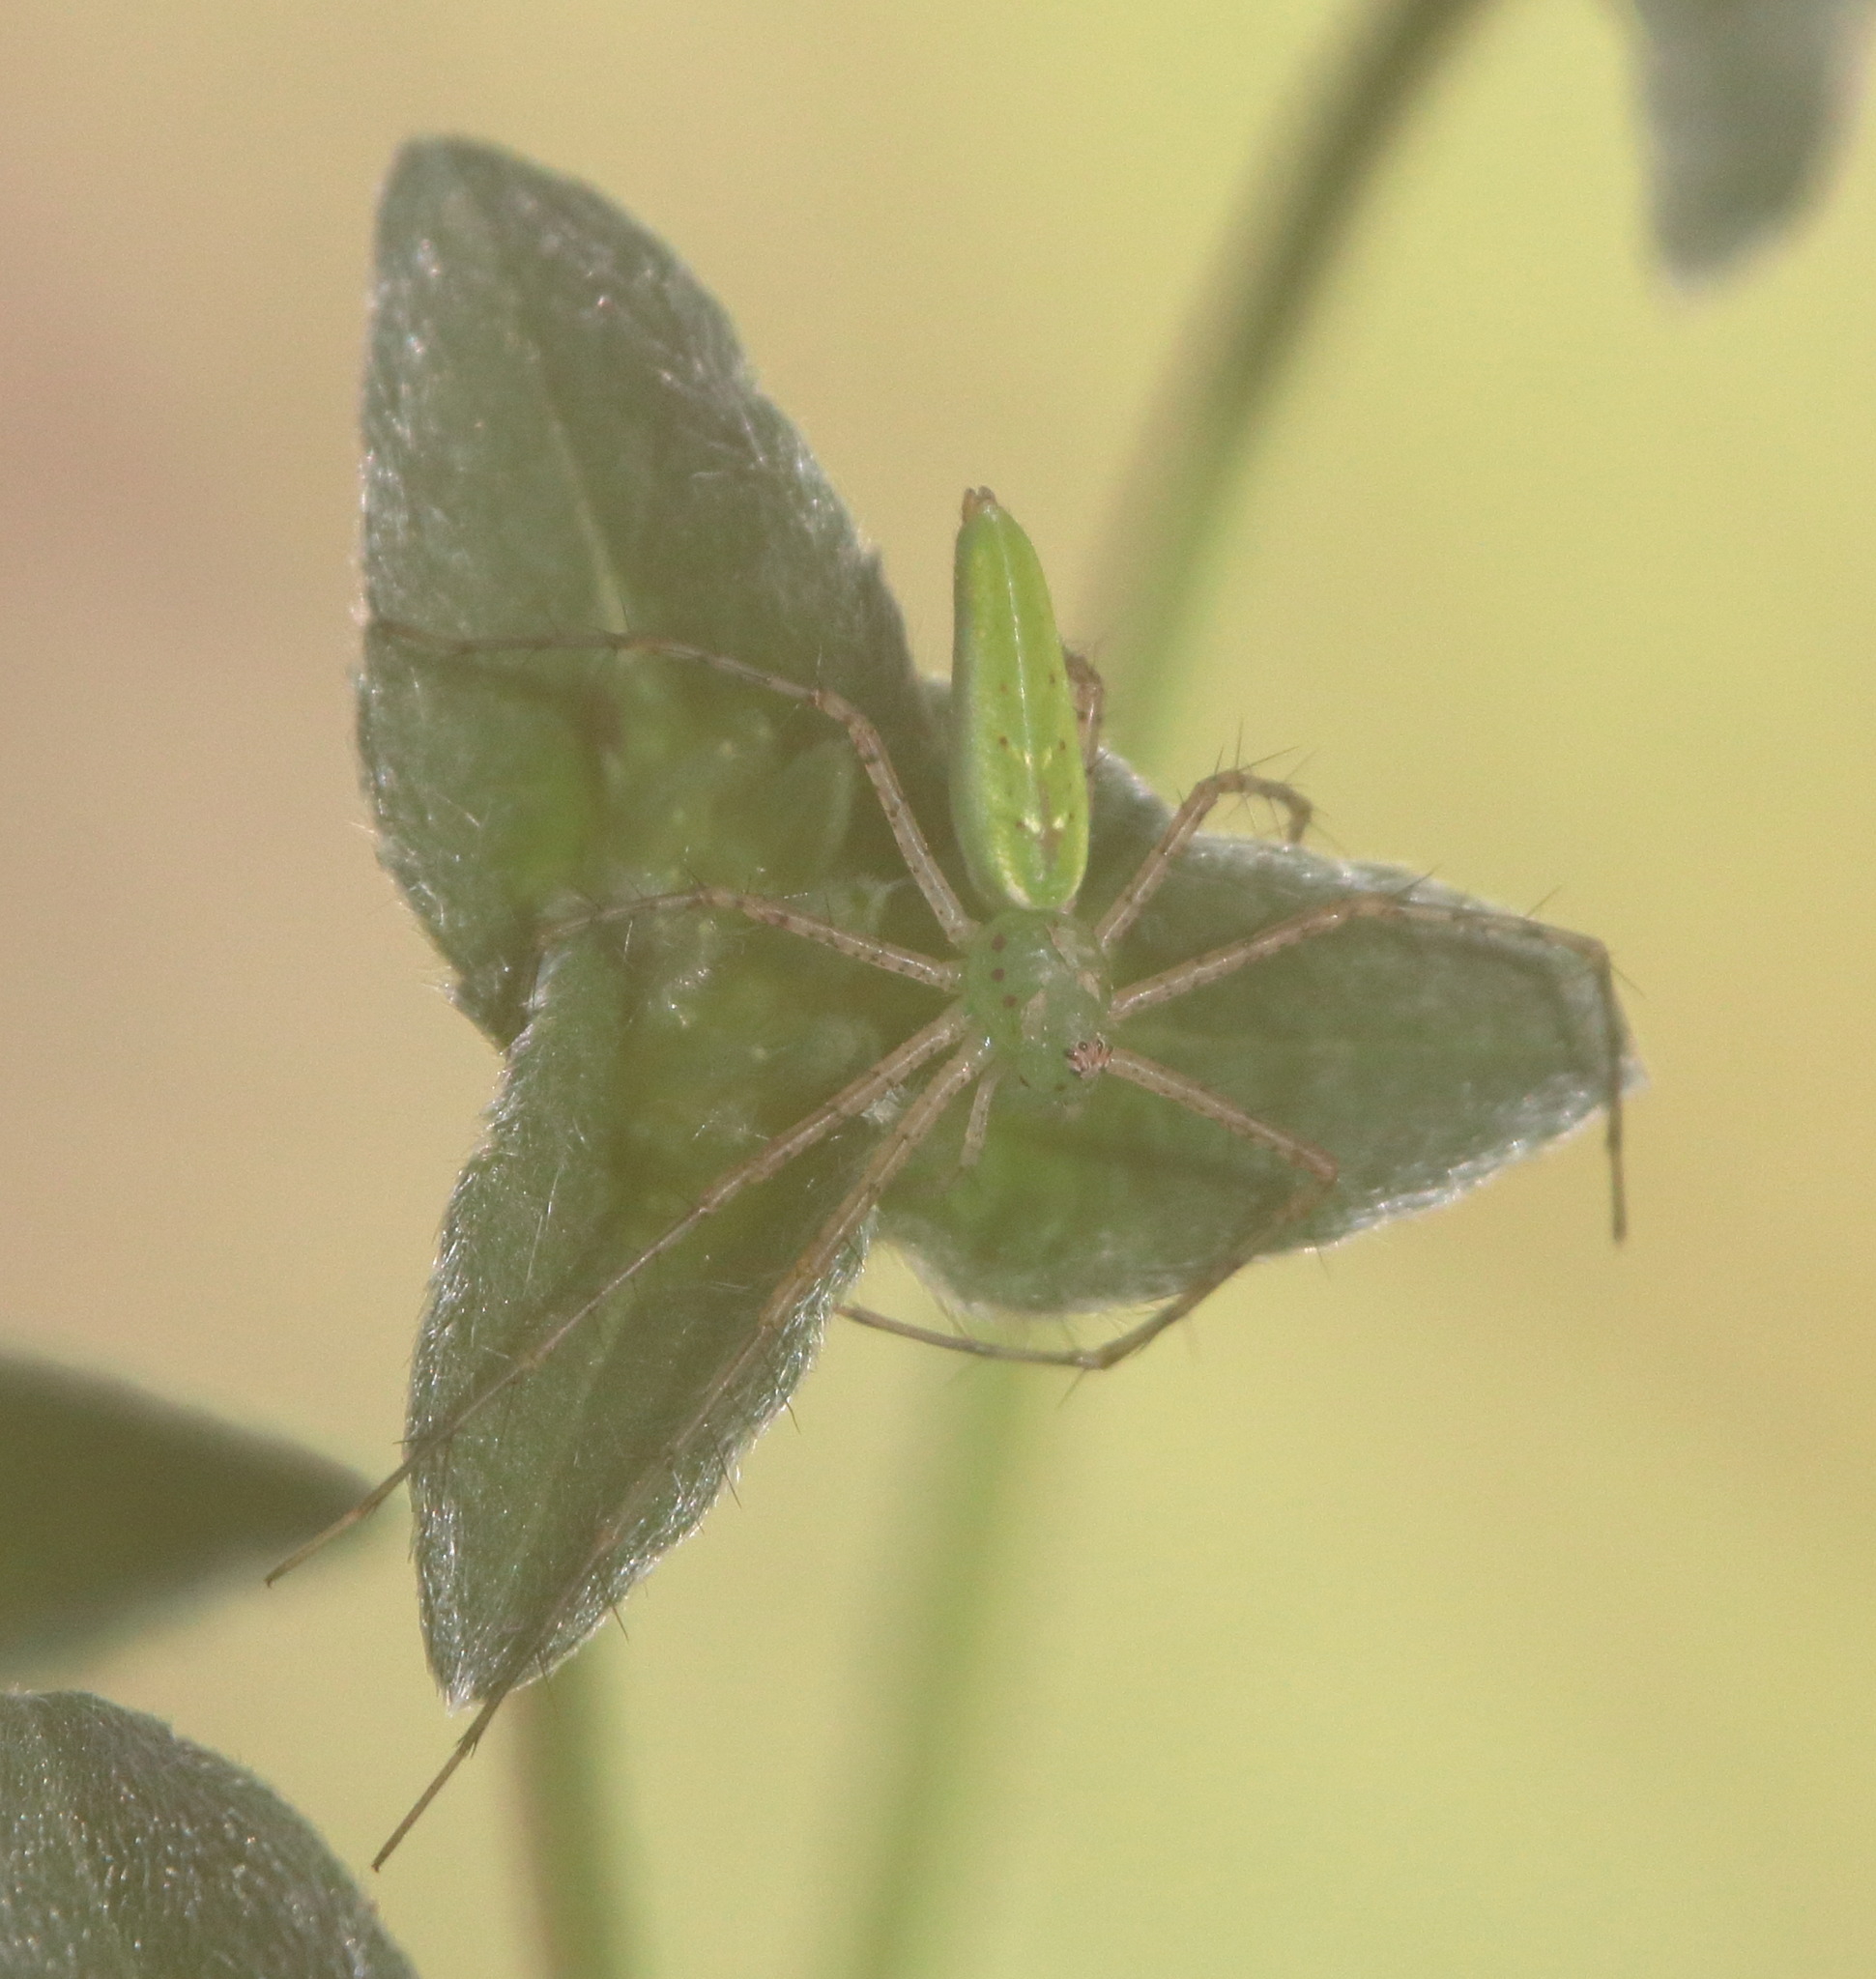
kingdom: Animalia
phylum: Arthropoda
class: Arachnida
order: Araneae
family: Oxyopidae
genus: Peucetia
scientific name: Peucetia viridans
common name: Lynx spiders
